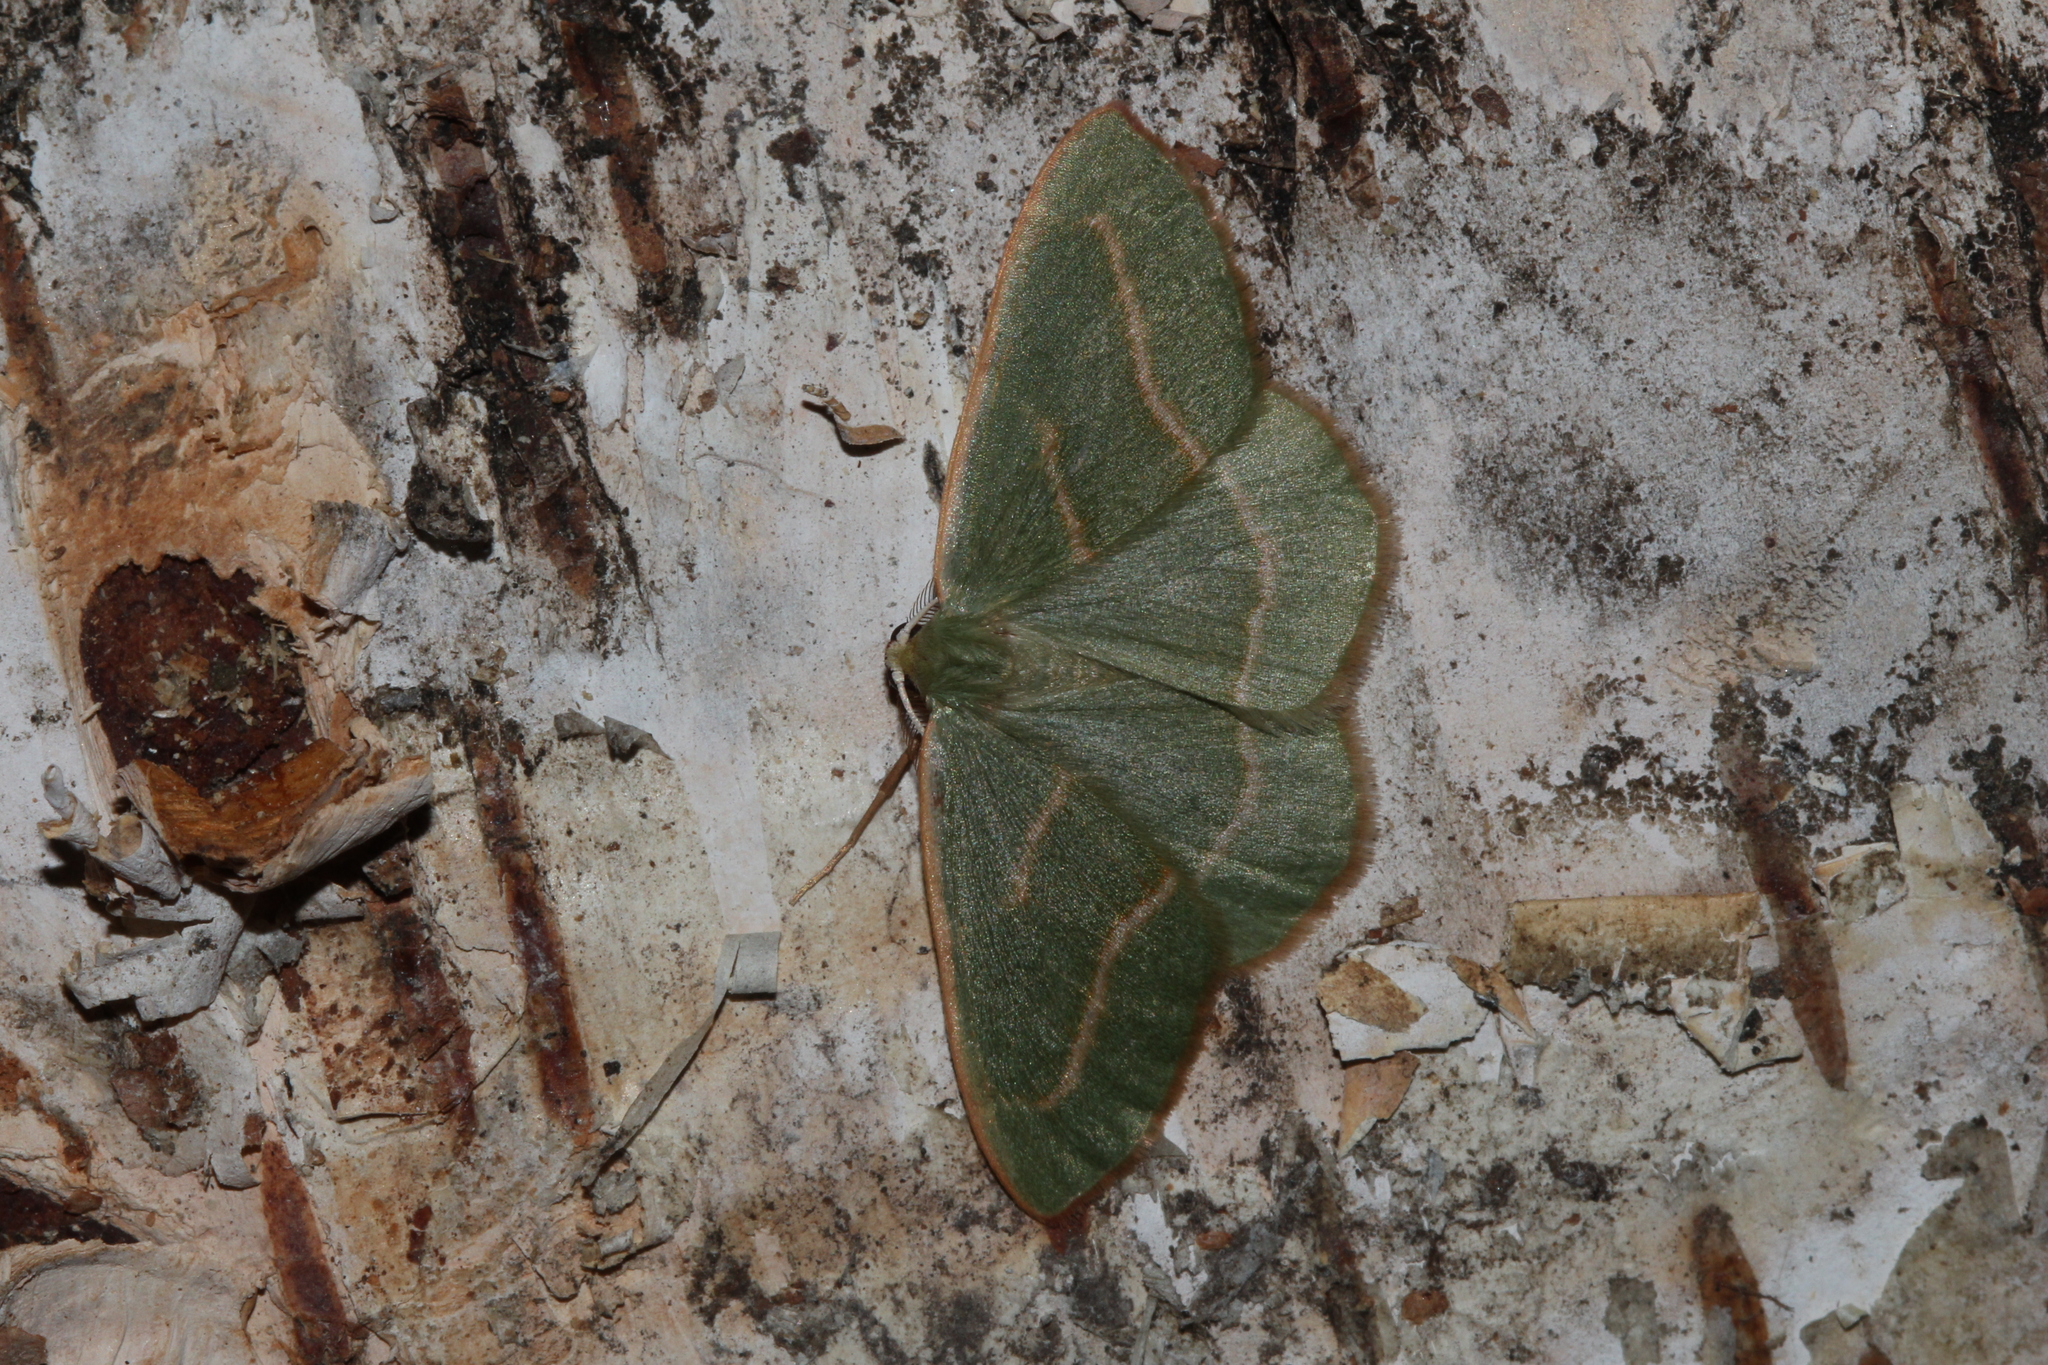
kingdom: Animalia
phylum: Arthropoda
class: Insecta
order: Lepidoptera
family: Geometridae
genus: Hylaea
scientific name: Hylaea fasciaria
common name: Barred red
